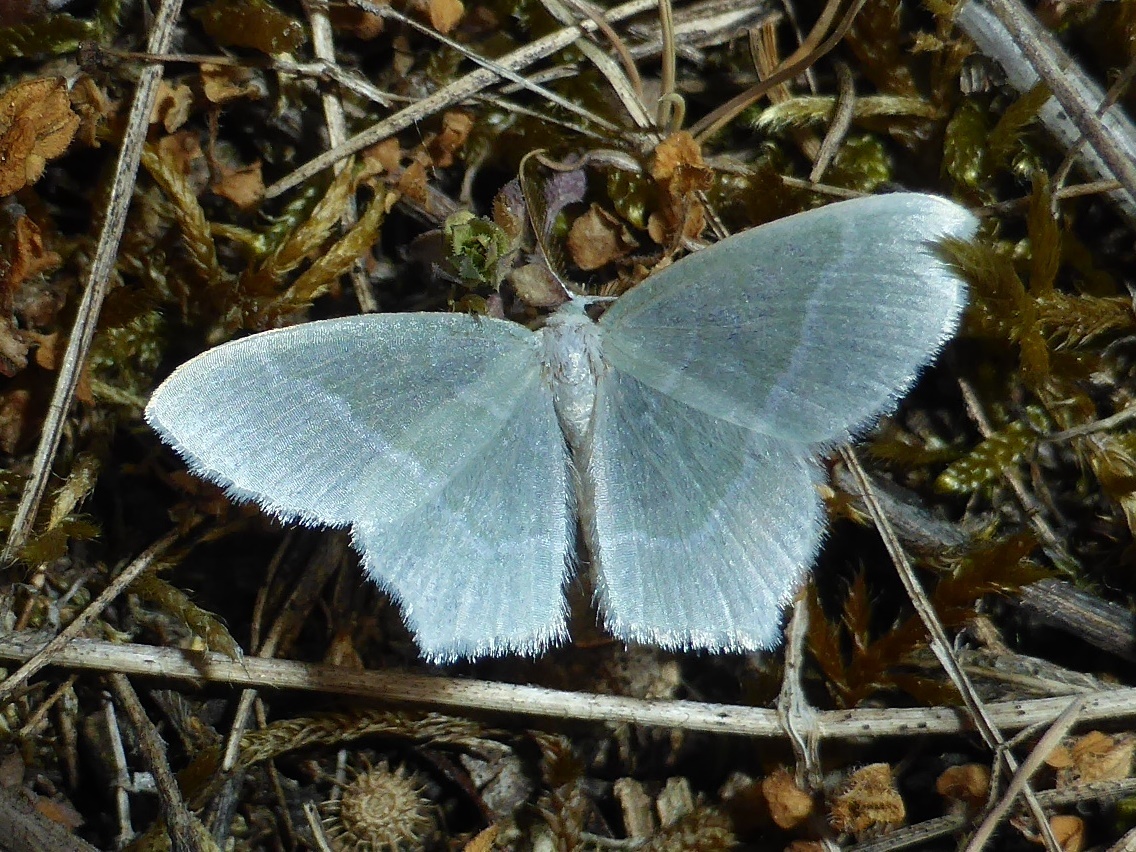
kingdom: Animalia
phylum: Arthropoda
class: Insecta
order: Lepidoptera
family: Geometridae
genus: Jodis
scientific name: Jodis lactearia
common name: Little emerald
